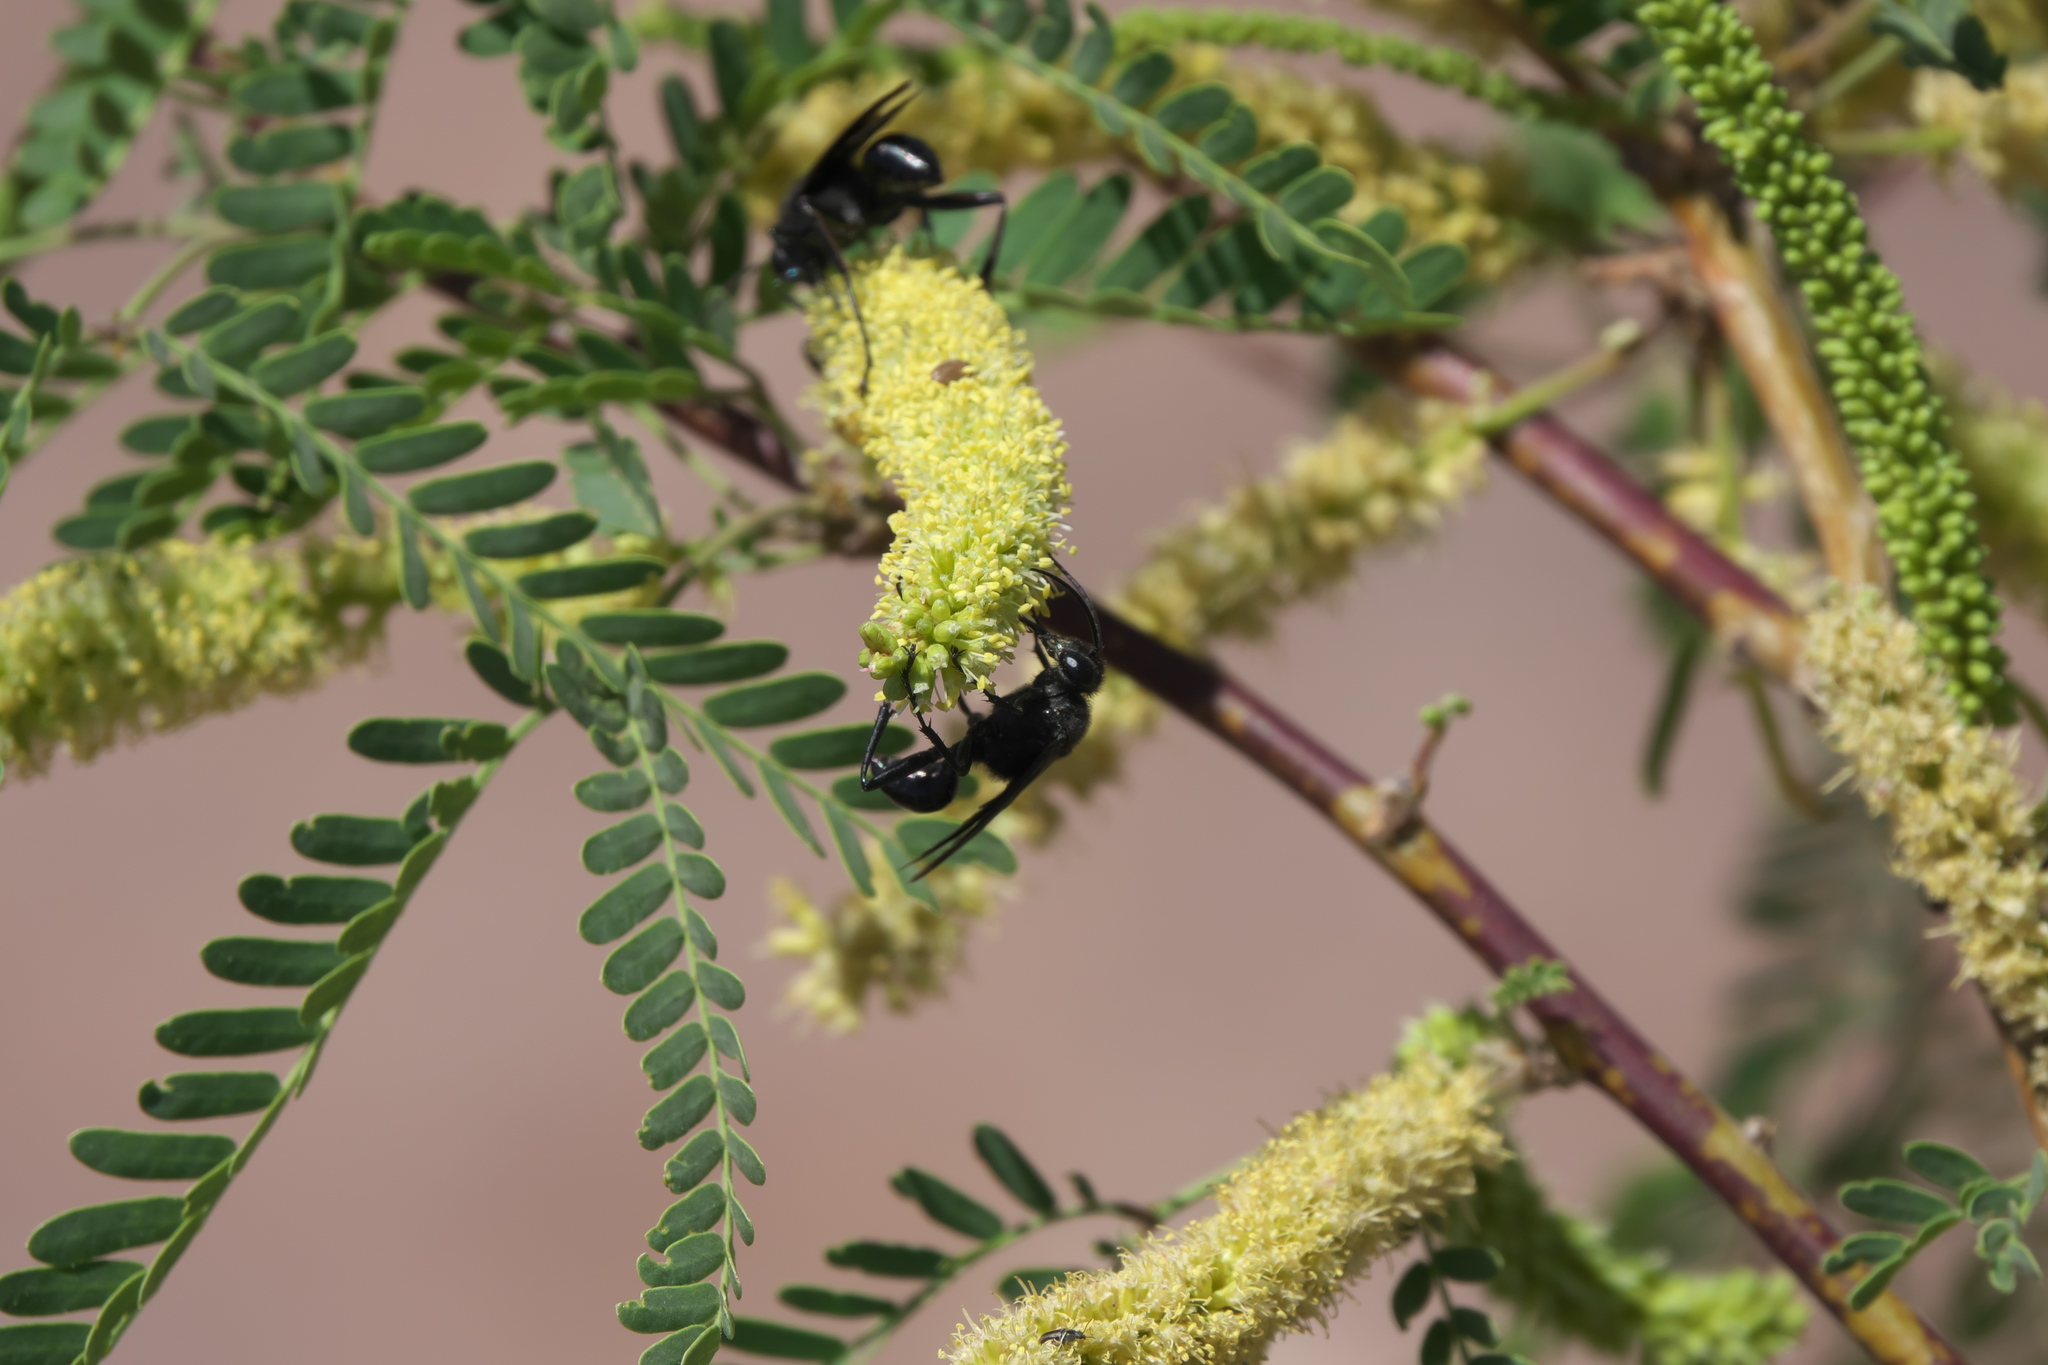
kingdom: Plantae
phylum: Tracheophyta
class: Magnoliopsida
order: Fabales
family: Fabaceae
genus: Prosopis
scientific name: Prosopis pubescens
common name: Screw-bean
